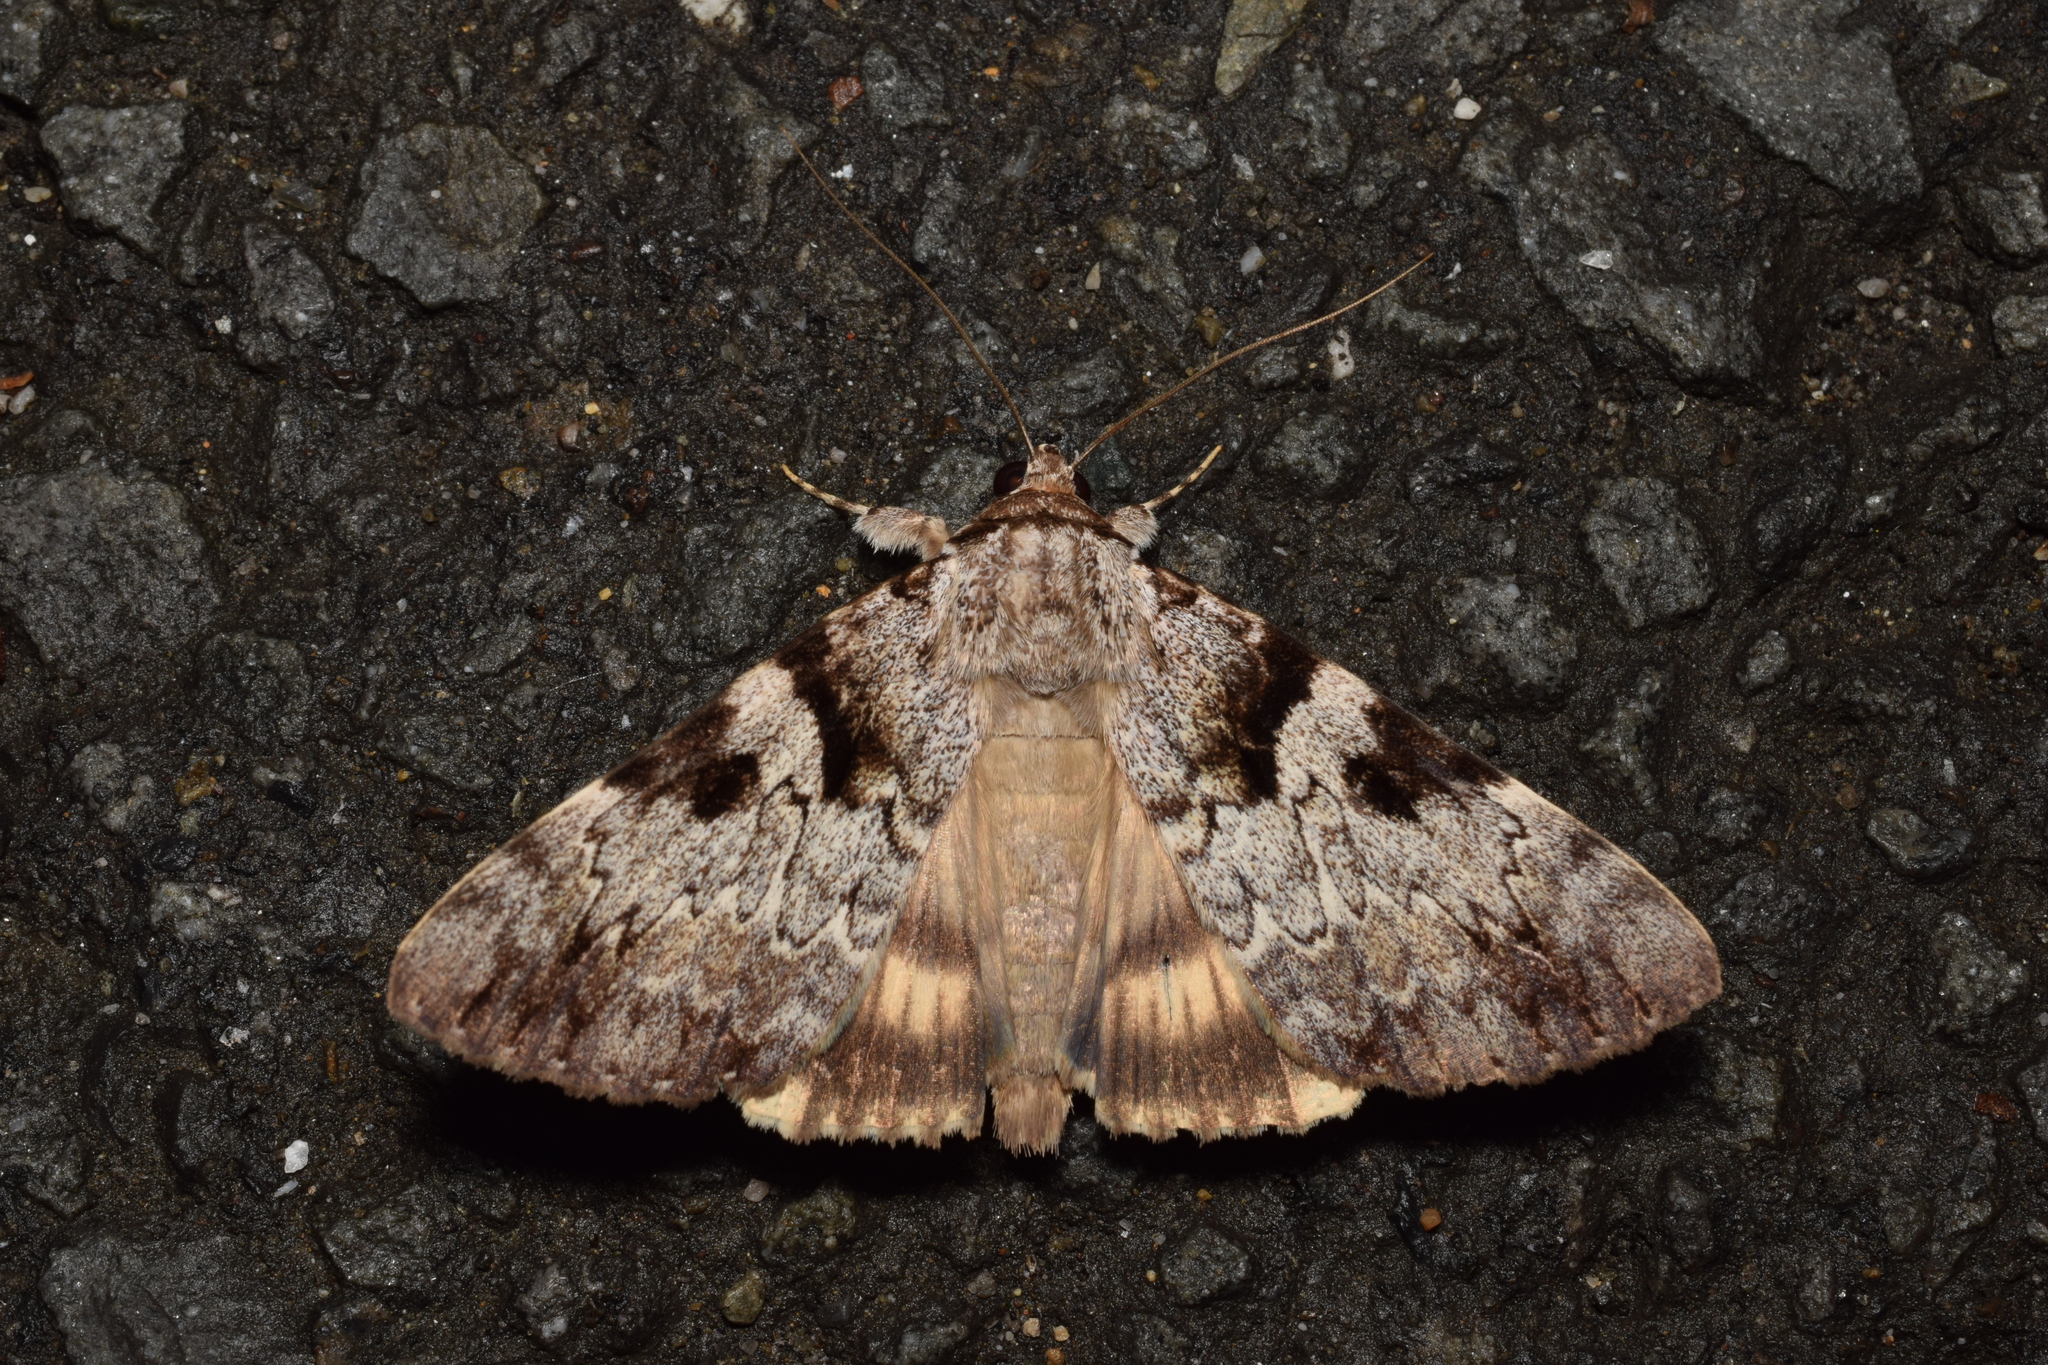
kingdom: Animalia
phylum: Arthropoda
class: Insecta
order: Lepidoptera
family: Erebidae
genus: Catocala
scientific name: Catocala intacta
